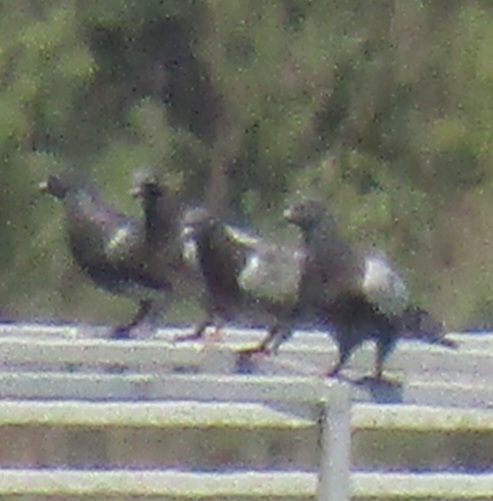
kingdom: Animalia
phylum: Chordata
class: Aves
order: Columbiformes
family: Columbidae
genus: Columba
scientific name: Columba livia
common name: Rock pigeon
